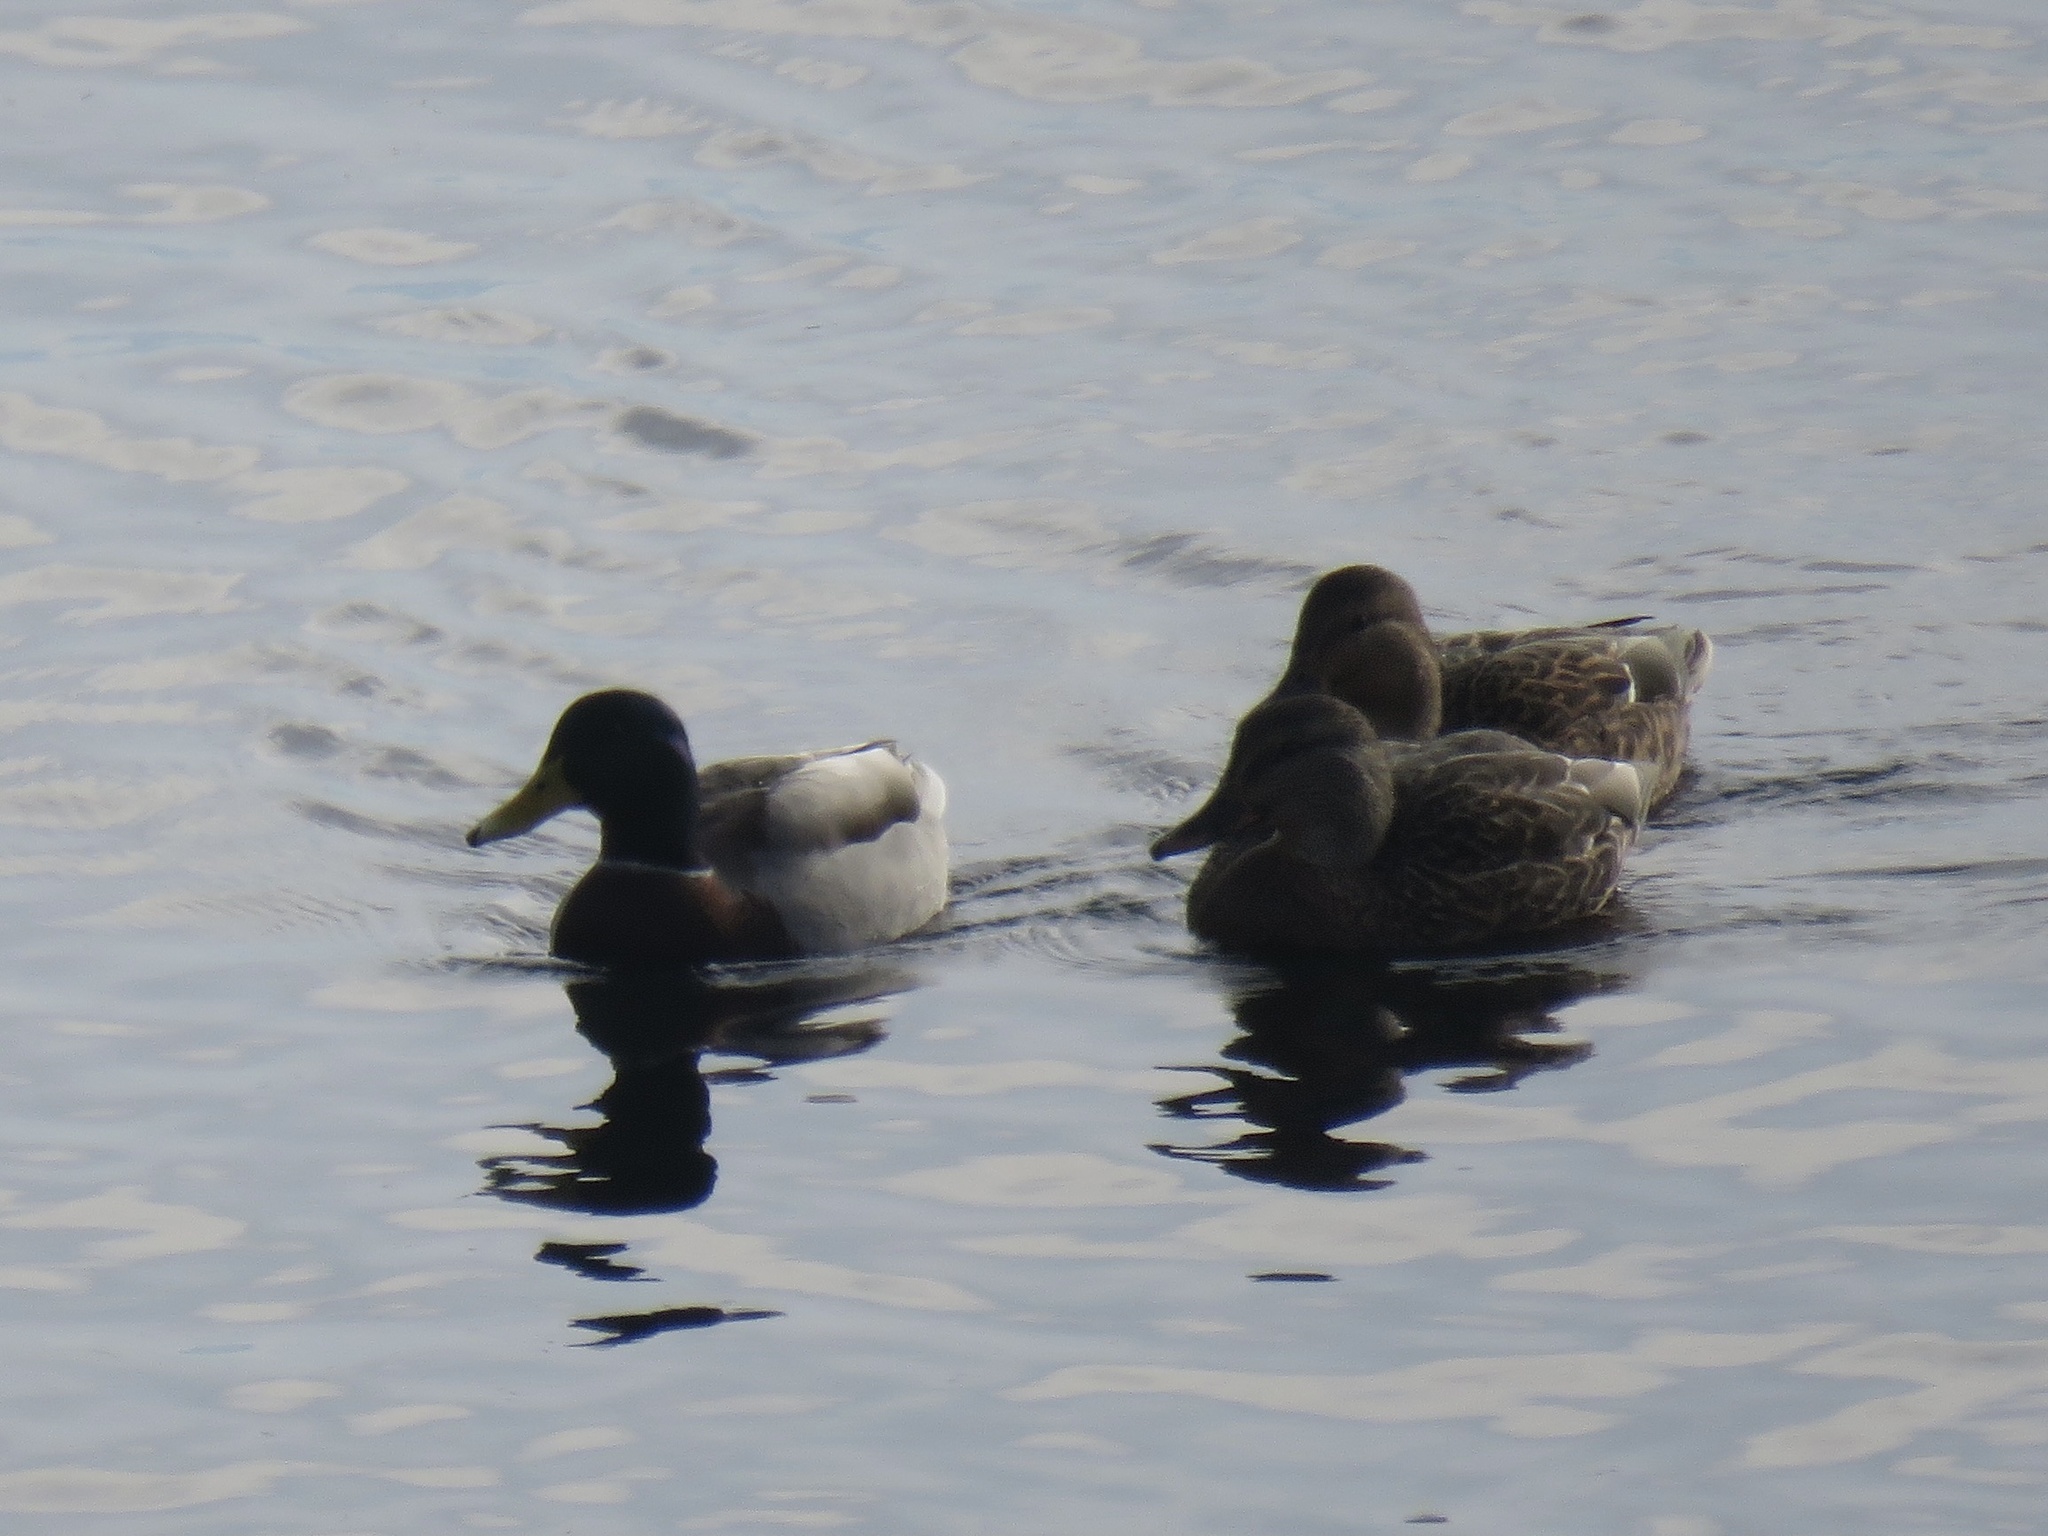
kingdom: Animalia
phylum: Chordata
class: Aves
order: Anseriformes
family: Anatidae
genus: Anas
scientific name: Anas platyrhynchos
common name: Mallard
